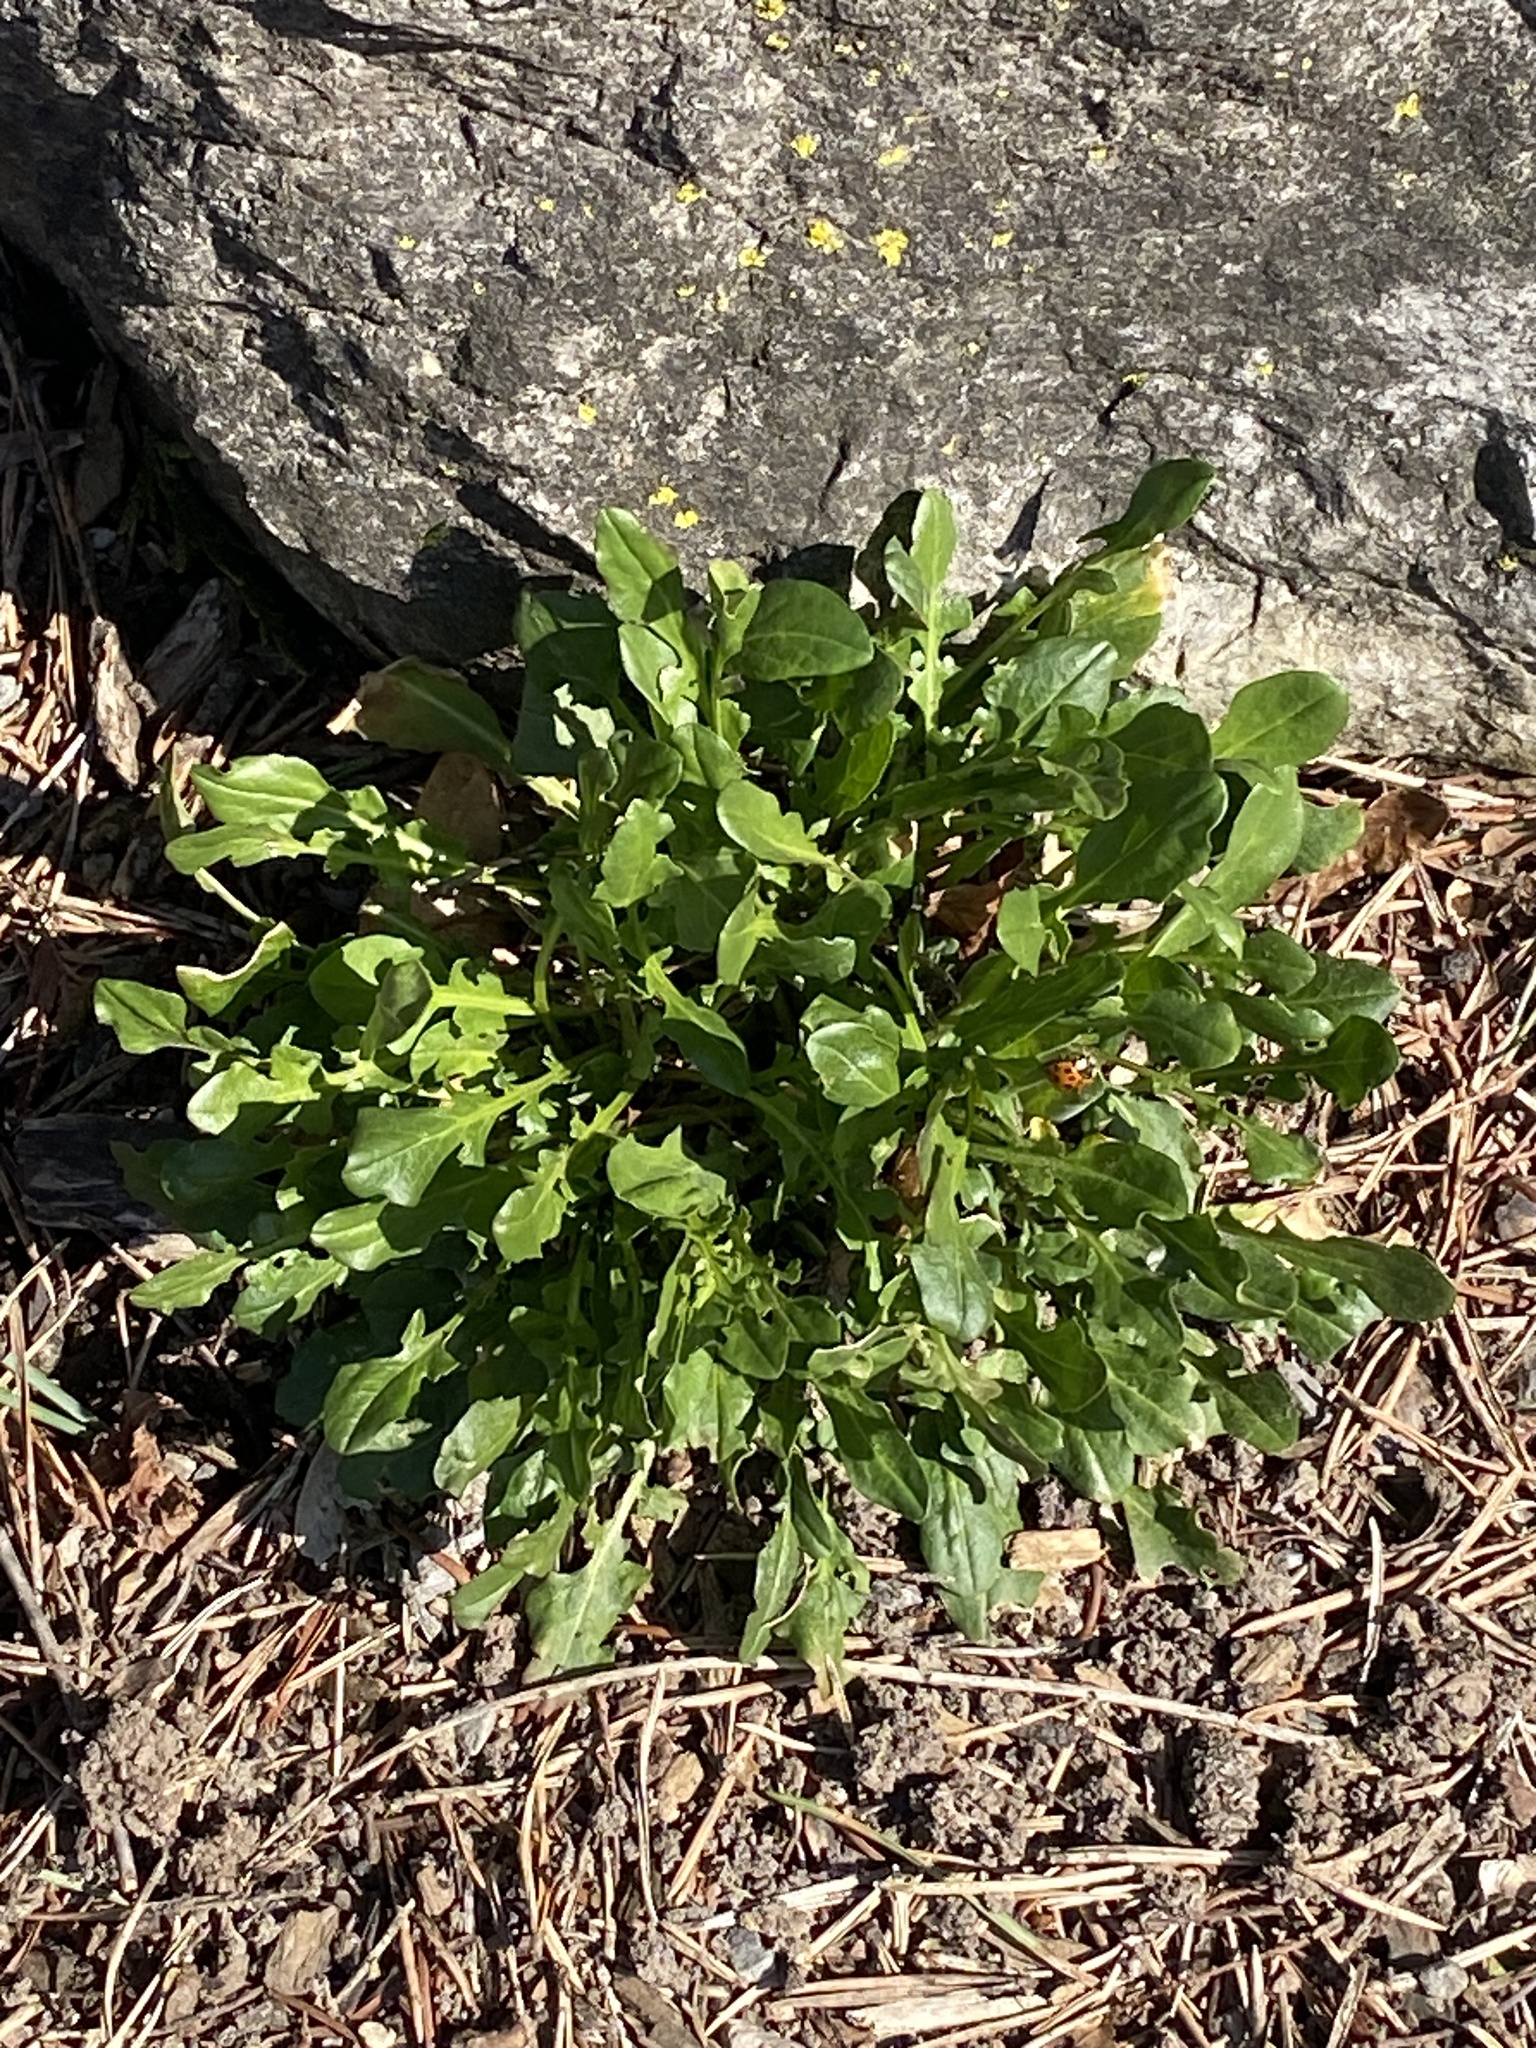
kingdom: Plantae
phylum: Tracheophyta
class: Magnoliopsida
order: Asterales
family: Asteraceae
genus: Leucanthemum
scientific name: Leucanthemum vulgare
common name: Oxeye daisy
